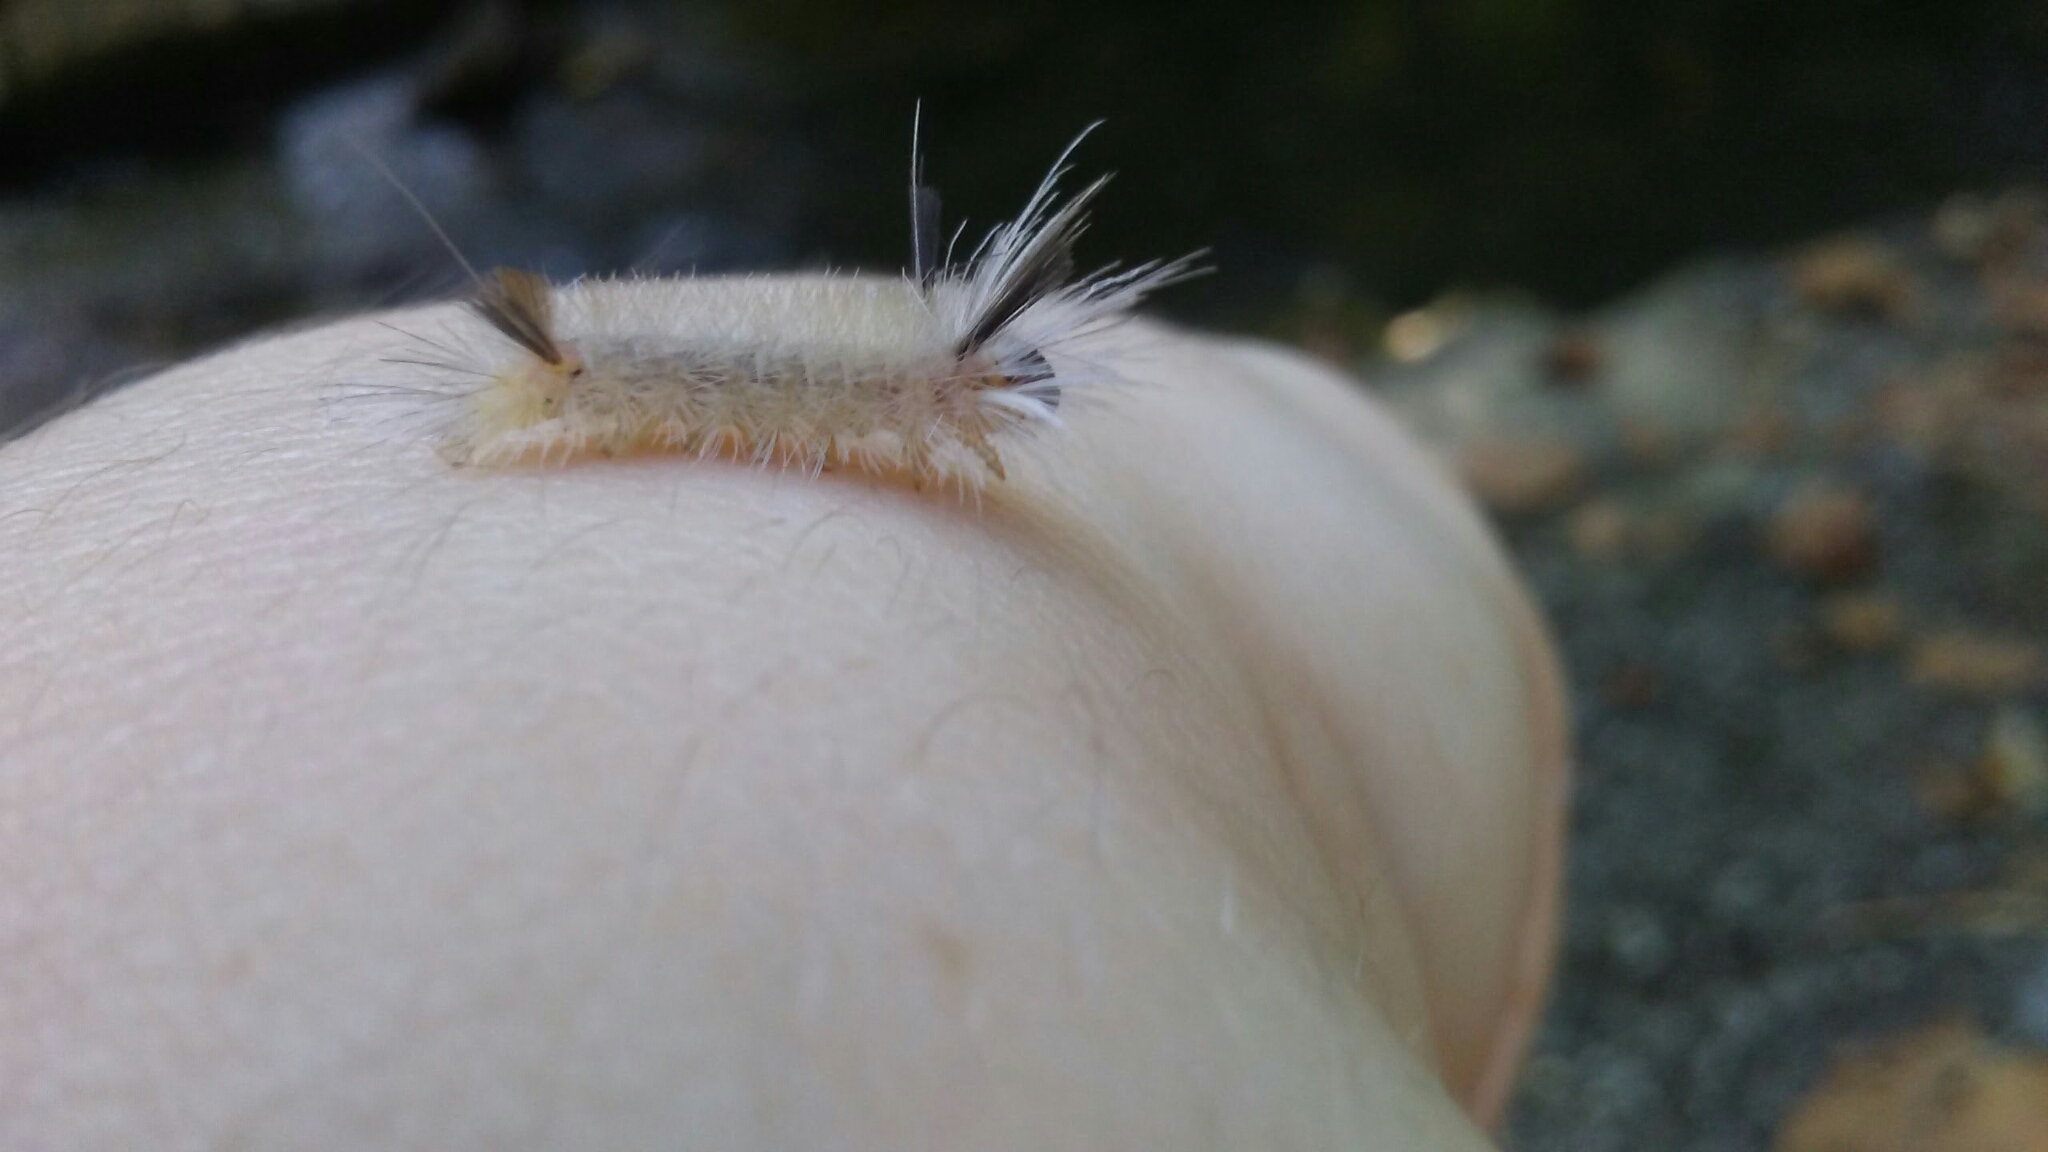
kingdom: Animalia
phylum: Arthropoda
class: Insecta
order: Lepidoptera
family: Erebidae
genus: Halysidota
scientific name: Halysidota tessellaris
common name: Banded tussock moth
